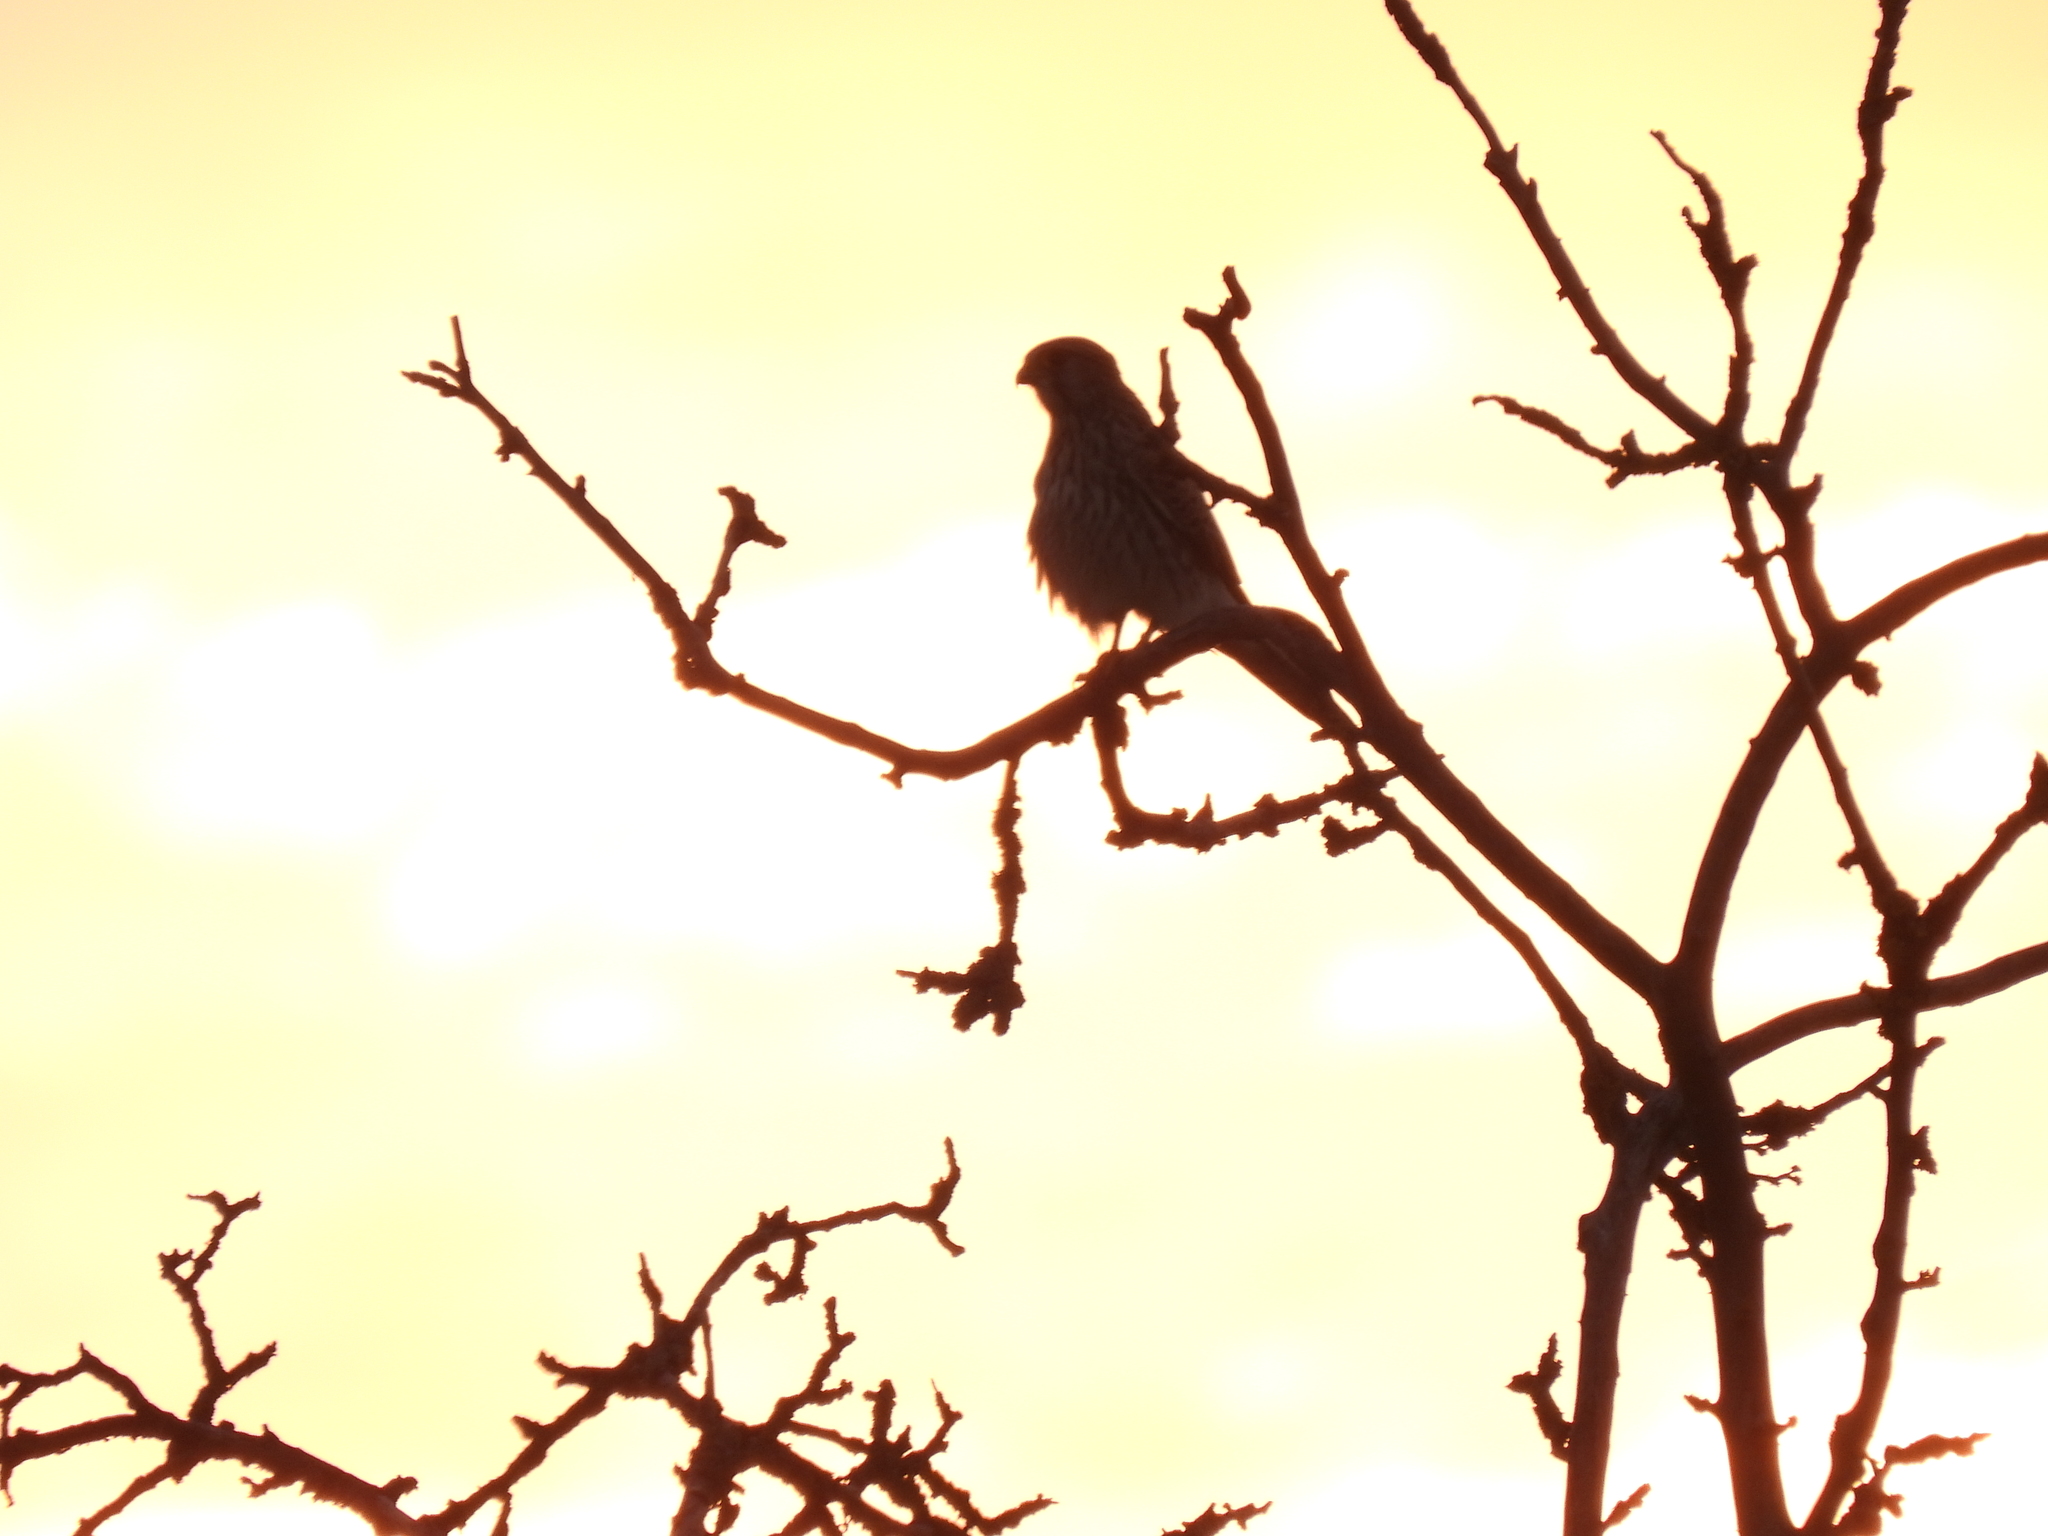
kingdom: Animalia
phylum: Chordata
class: Aves
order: Falconiformes
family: Falconidae
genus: Falco
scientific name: Falco tinnunculus
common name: Common kestrel
